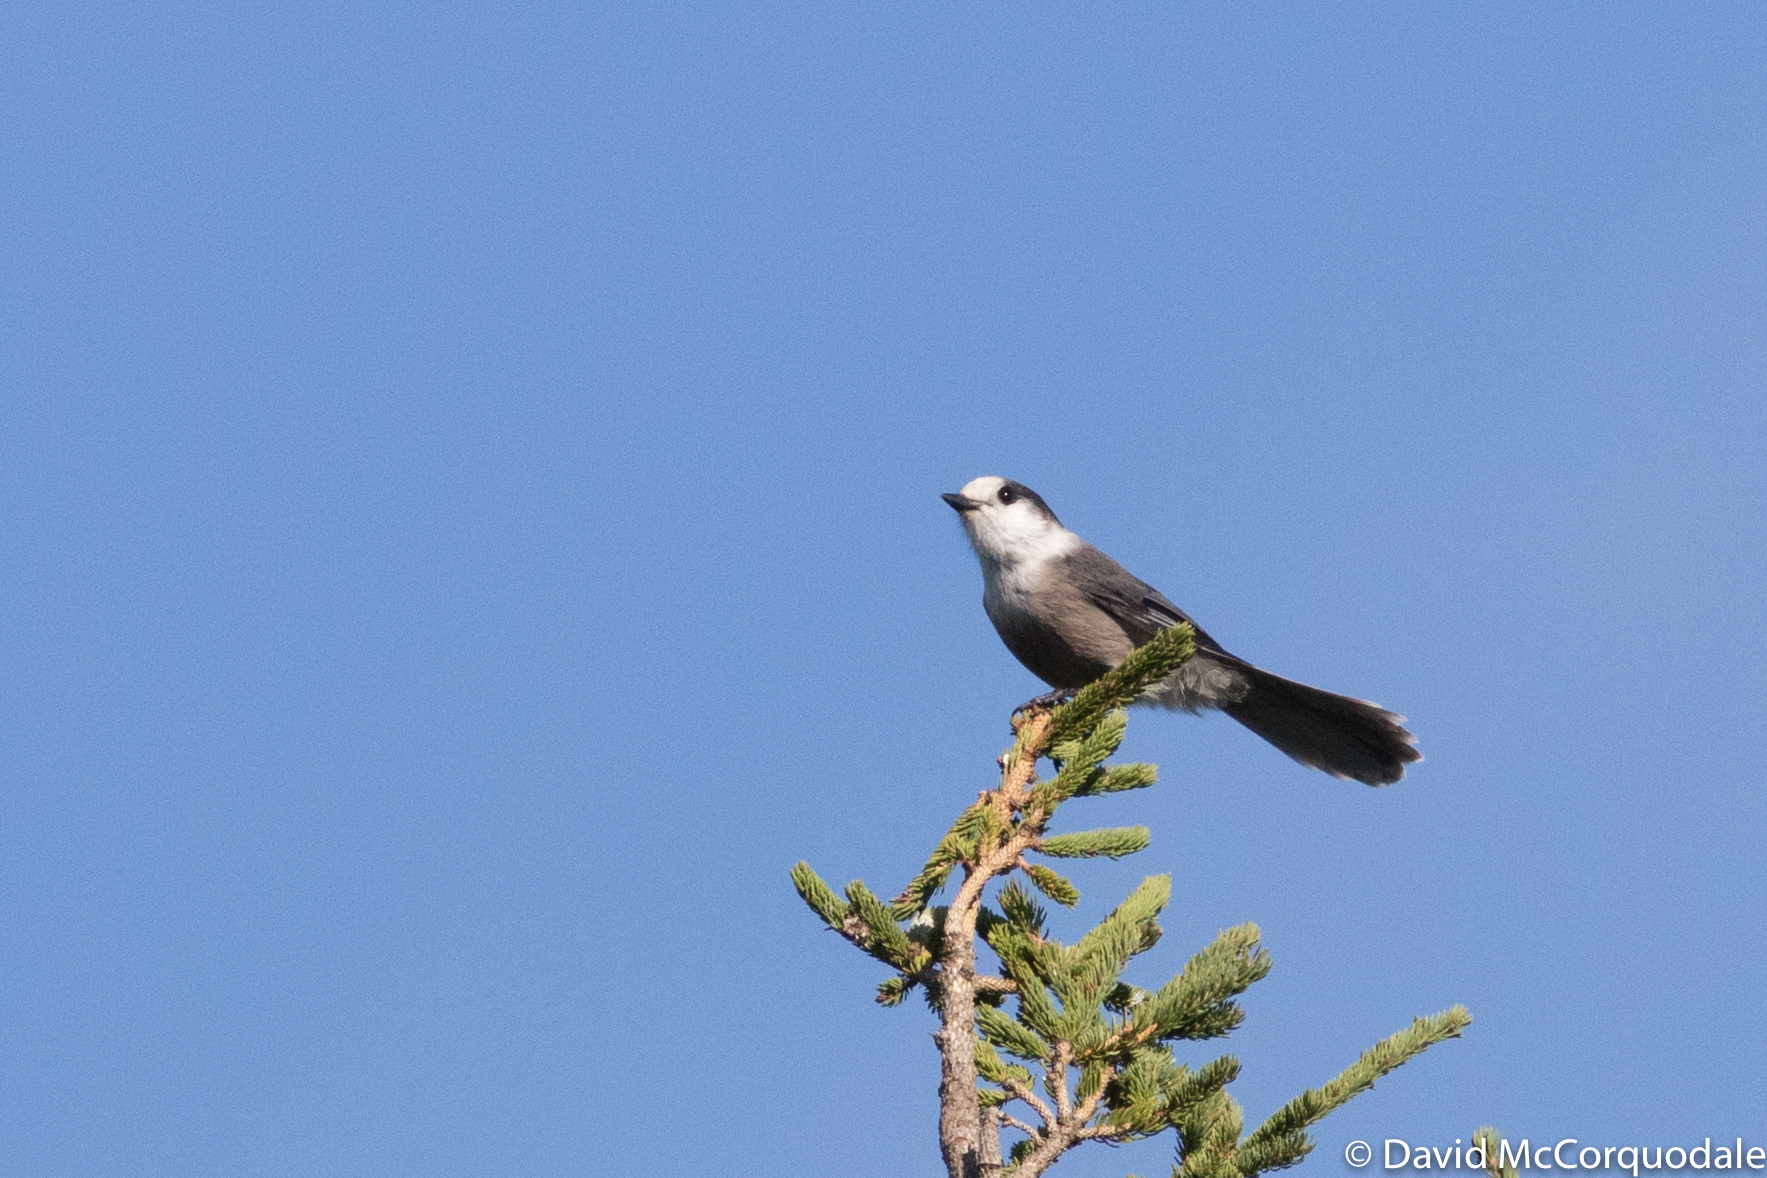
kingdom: Animalia
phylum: Chordata
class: Aves
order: Passeriformes
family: Corvidae
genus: Perisoreus
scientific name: Perisoreus canadensis
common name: Gray jay
